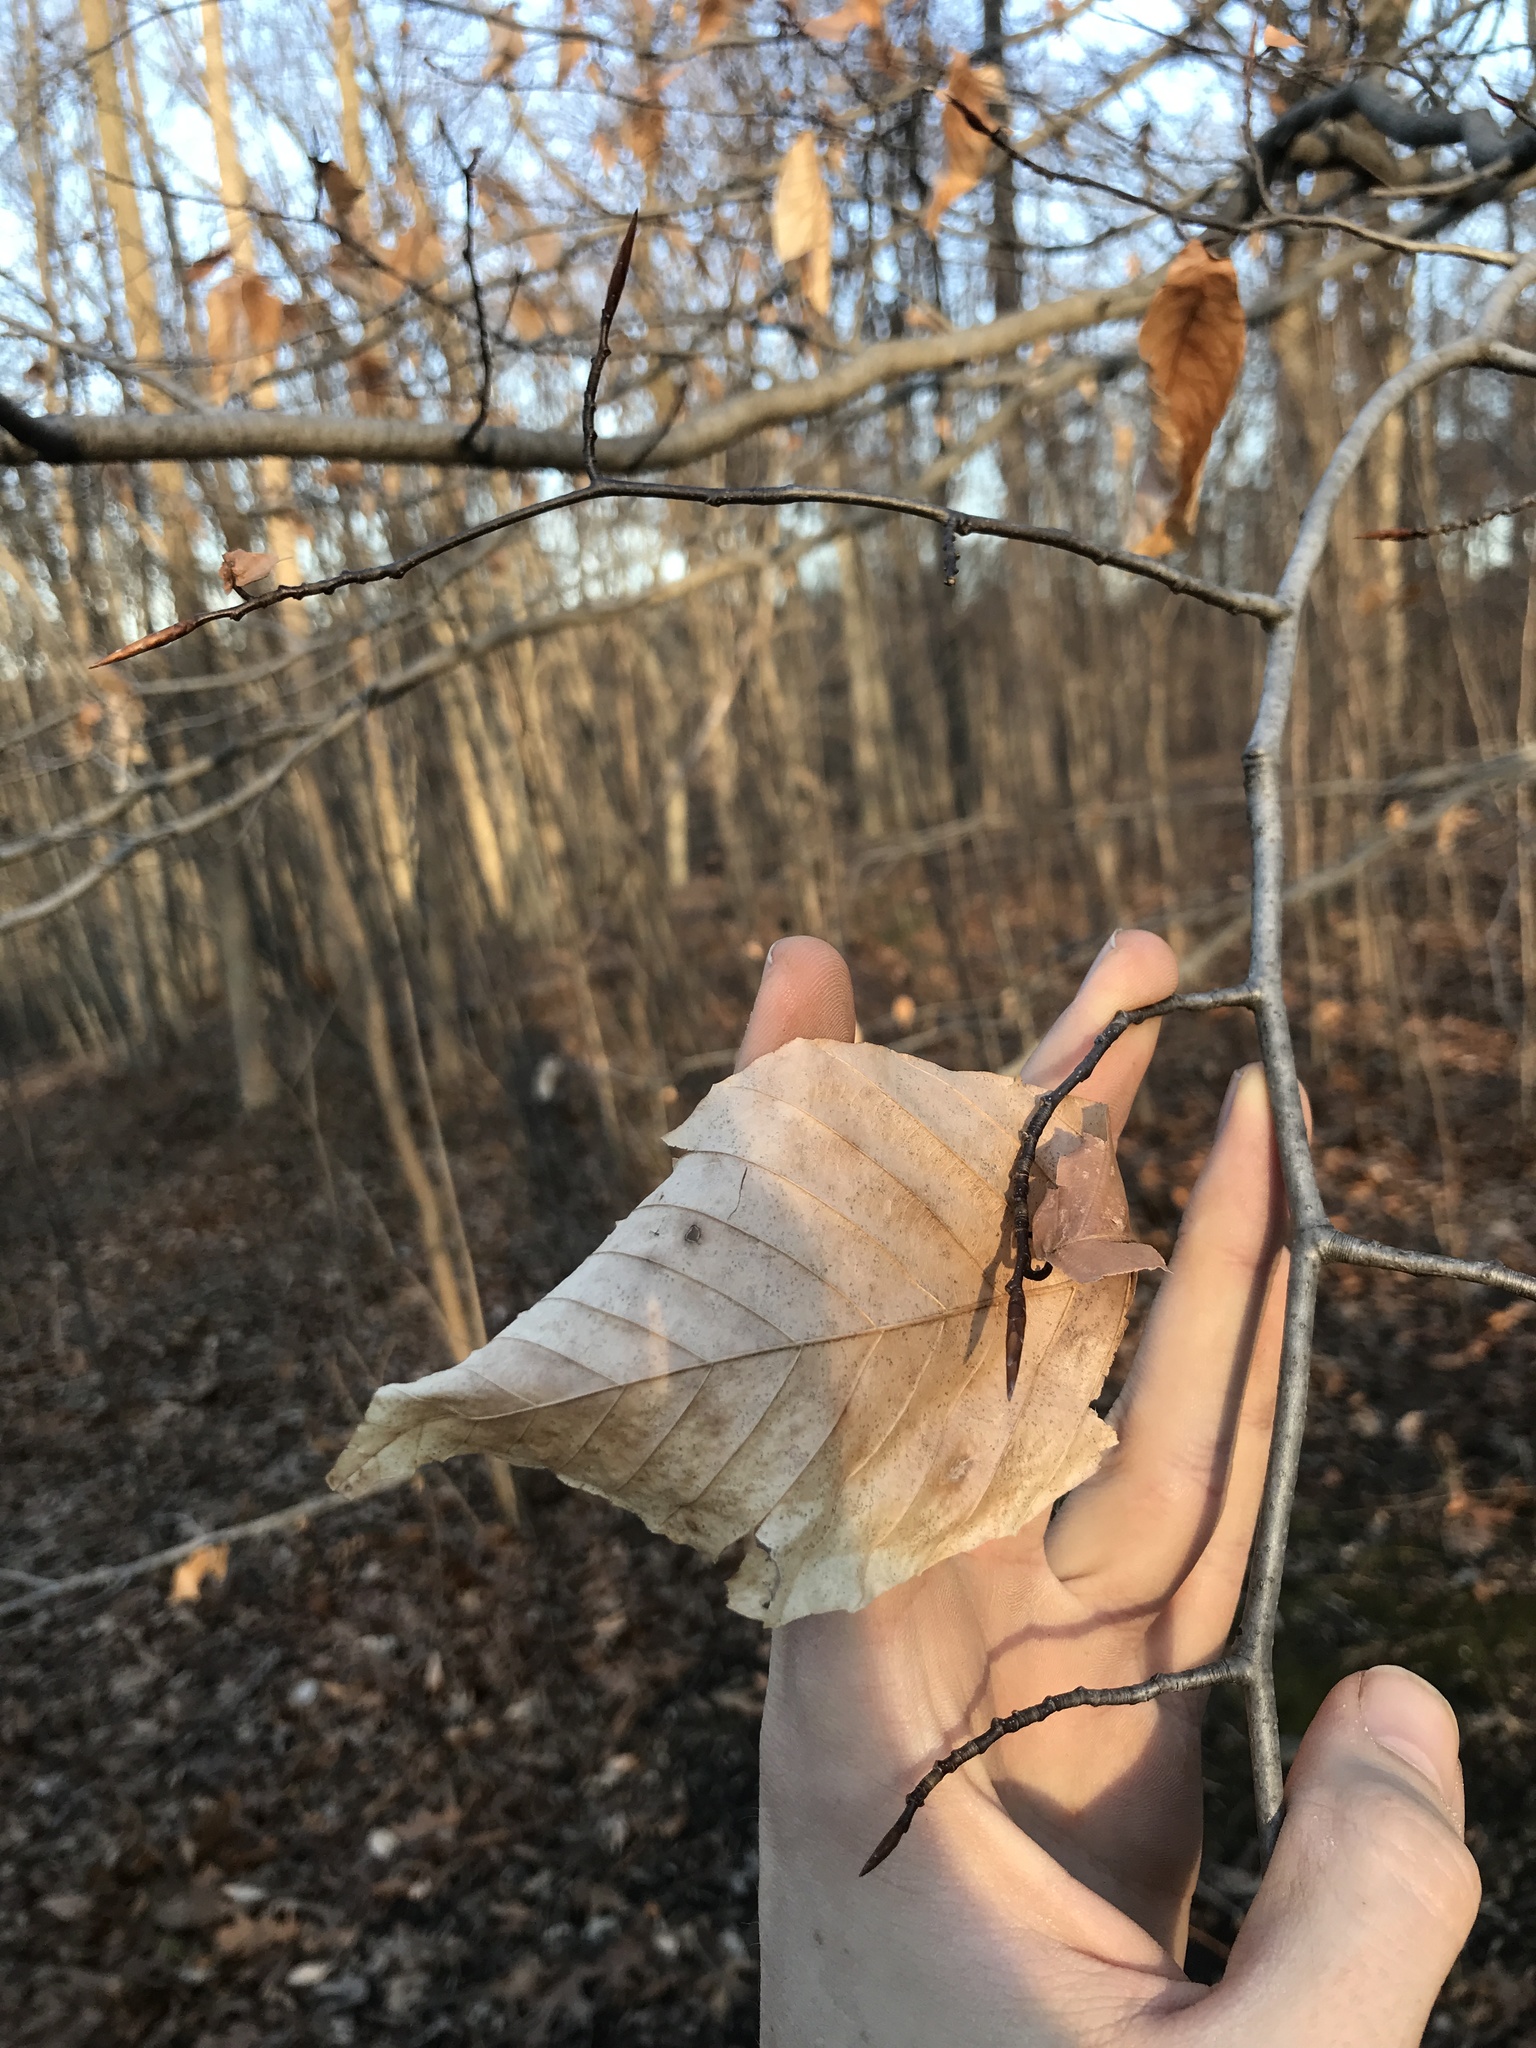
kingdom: Plantae
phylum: Tracheophyta
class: Magnoliopsida
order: Fagales
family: Fagaceae
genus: Fagus
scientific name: Fagus grandifolia
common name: American beech
